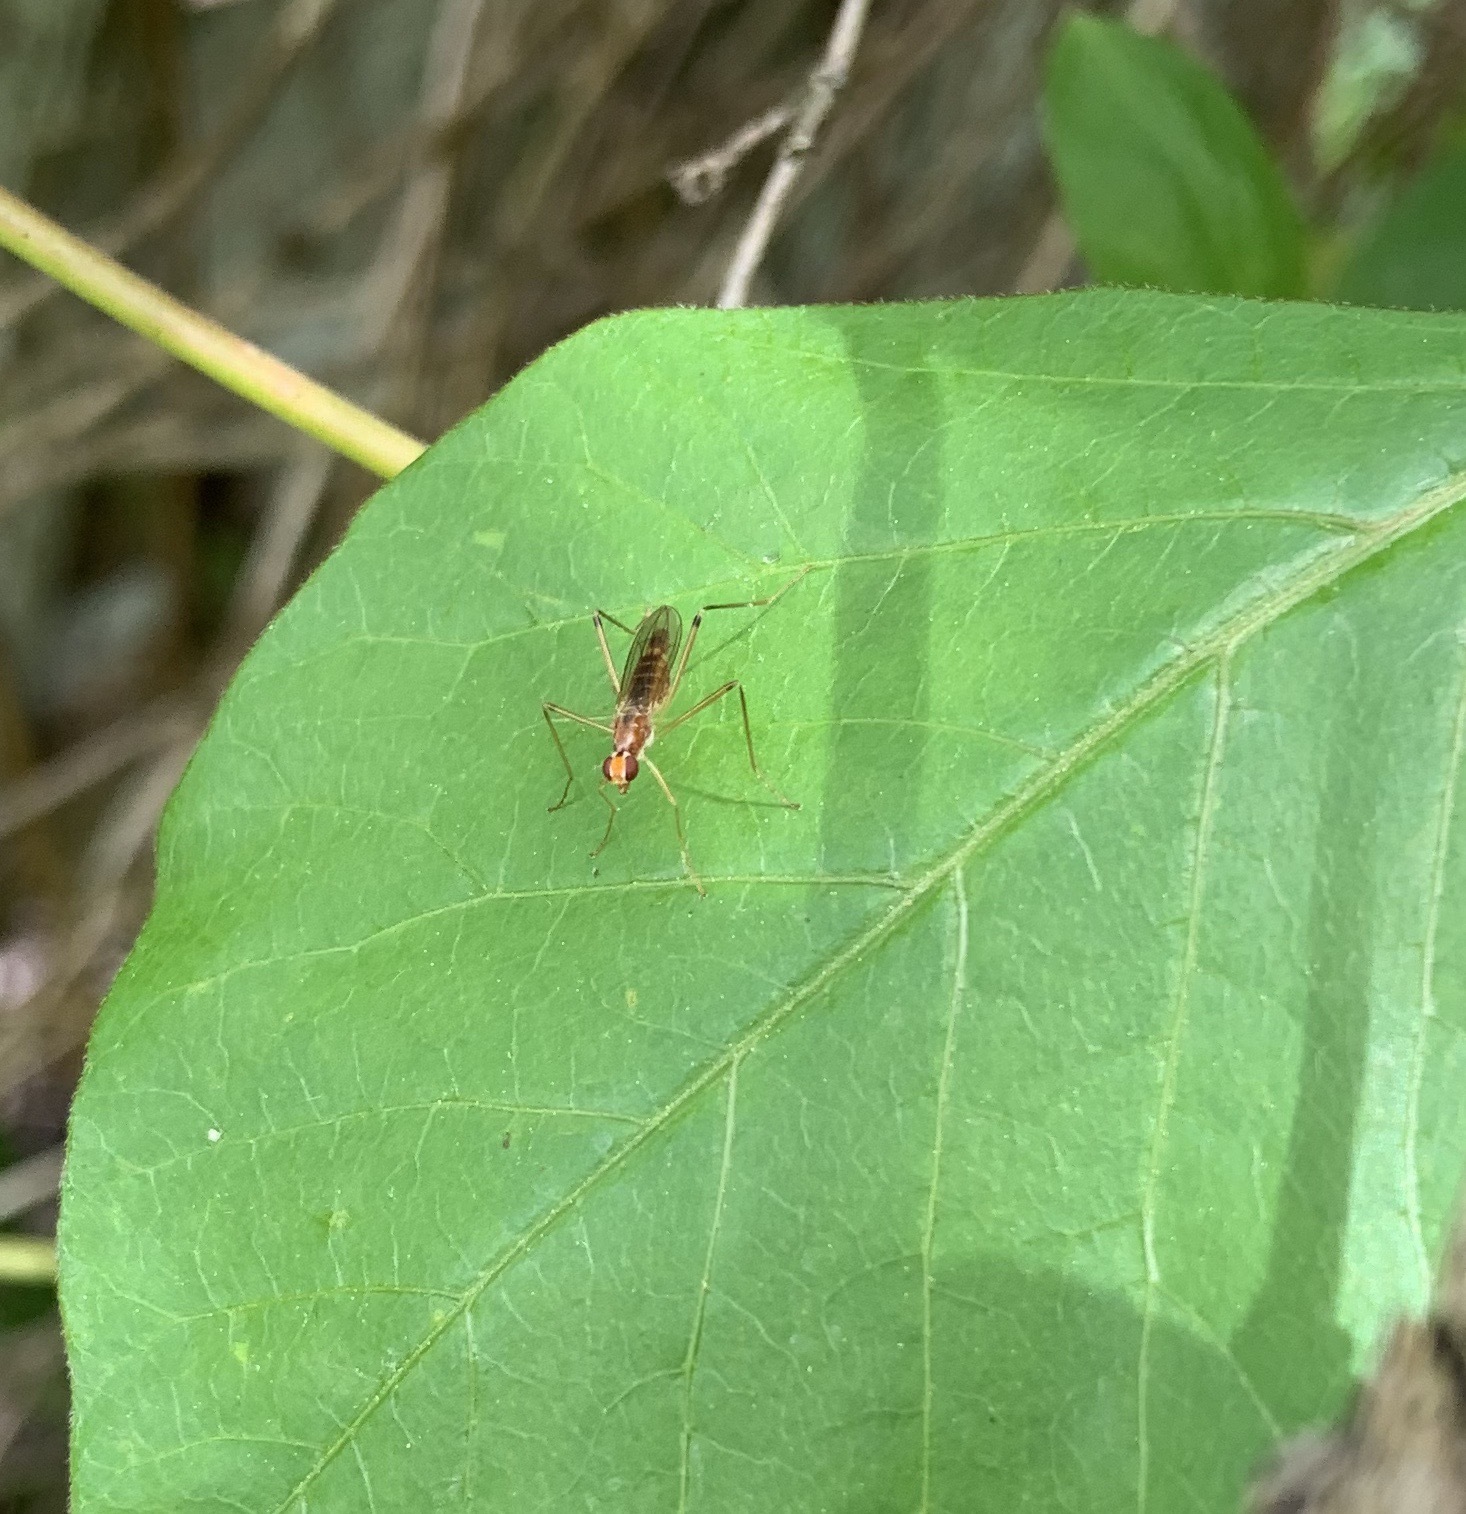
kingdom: Animalia
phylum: Arthropoda
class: Insecta
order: Diptera
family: Micropezidae
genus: Compsobata
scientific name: Compsobata univitta
